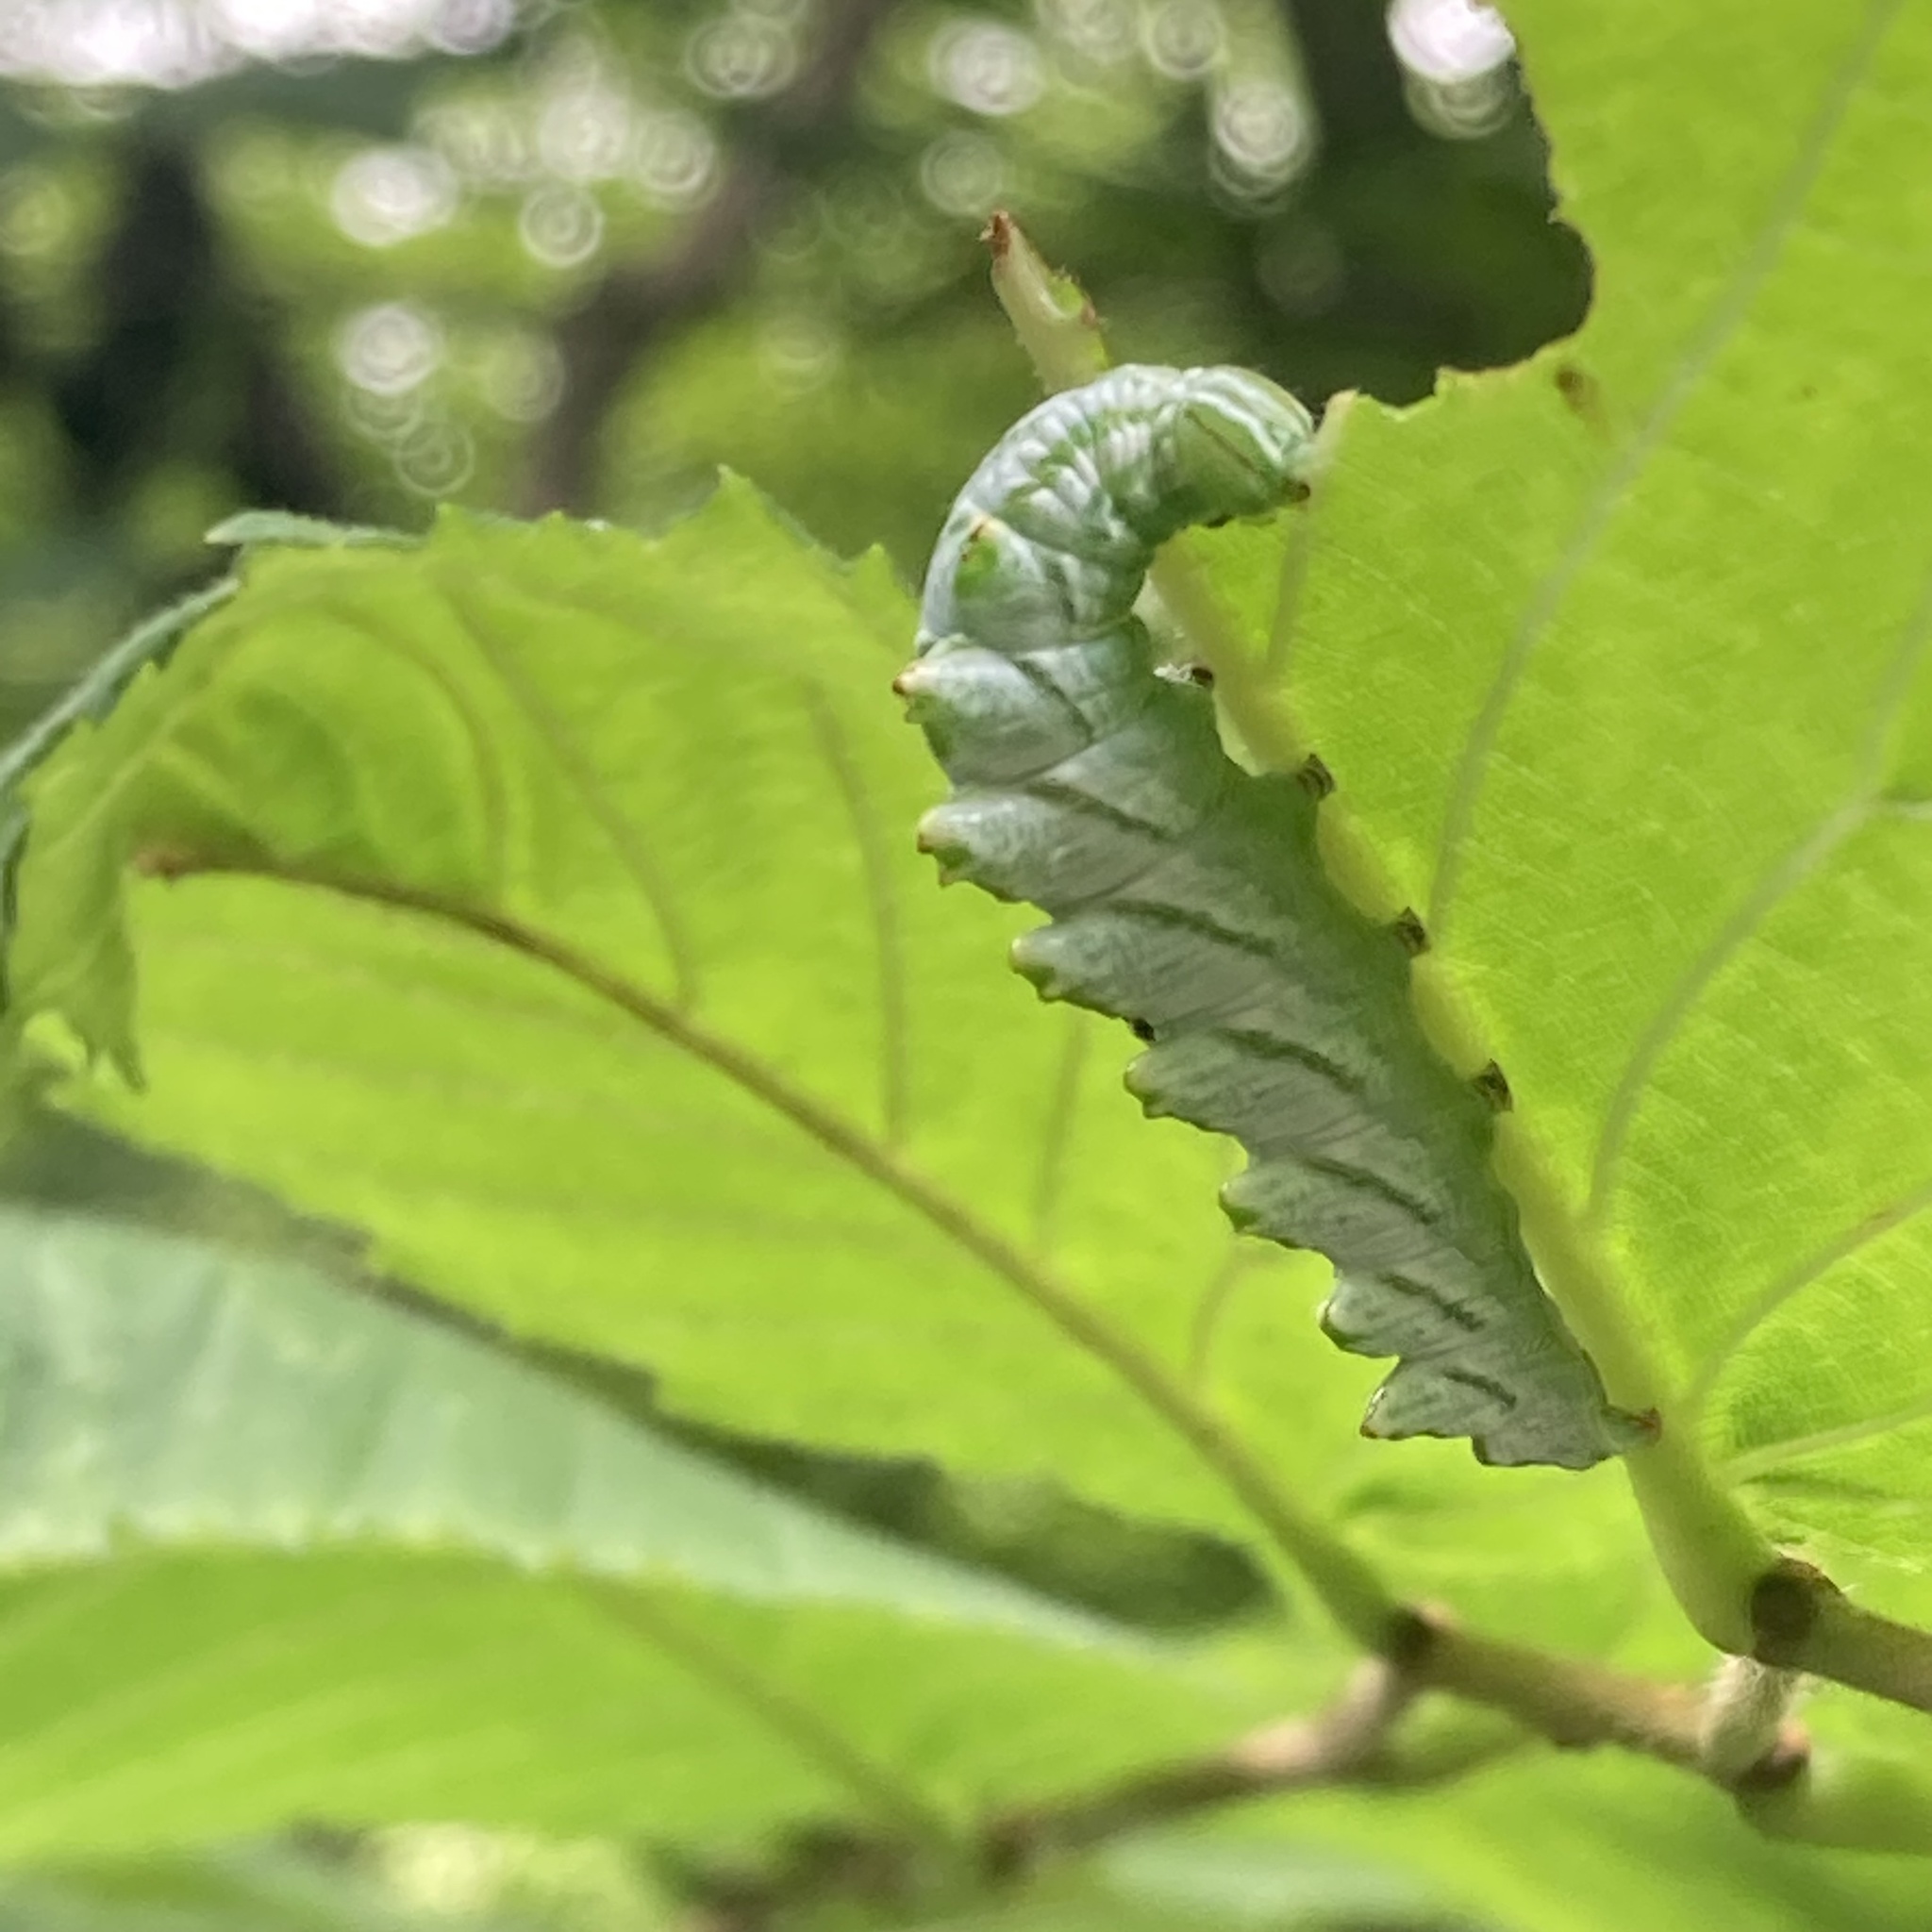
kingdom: Animalia
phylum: Arthropoda
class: Insecta
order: Lepidoptera
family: Notodontidae
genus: Nerice
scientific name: Nerice bidentata
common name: Double-toothed prominent
